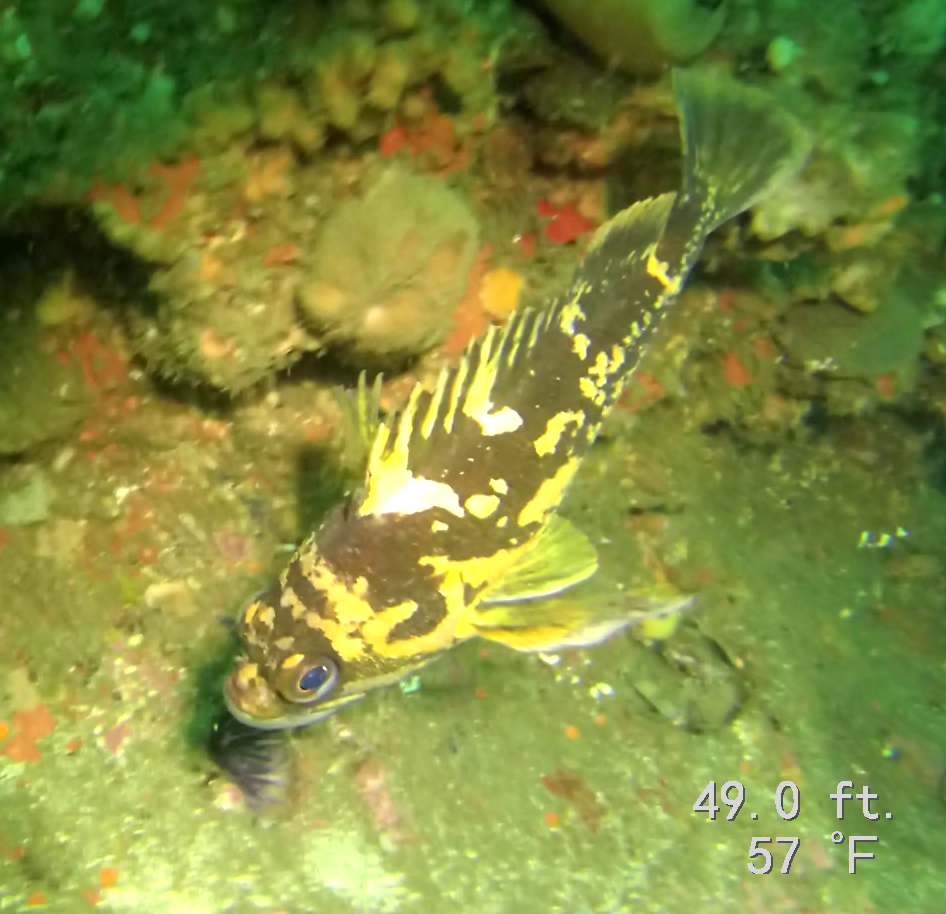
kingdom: Animalia
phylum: Chordata
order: Scorpaeniformes
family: Sebastidae
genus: Sebastes
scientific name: Sebastes chrysomelas
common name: Black-and-yellow rockfish
